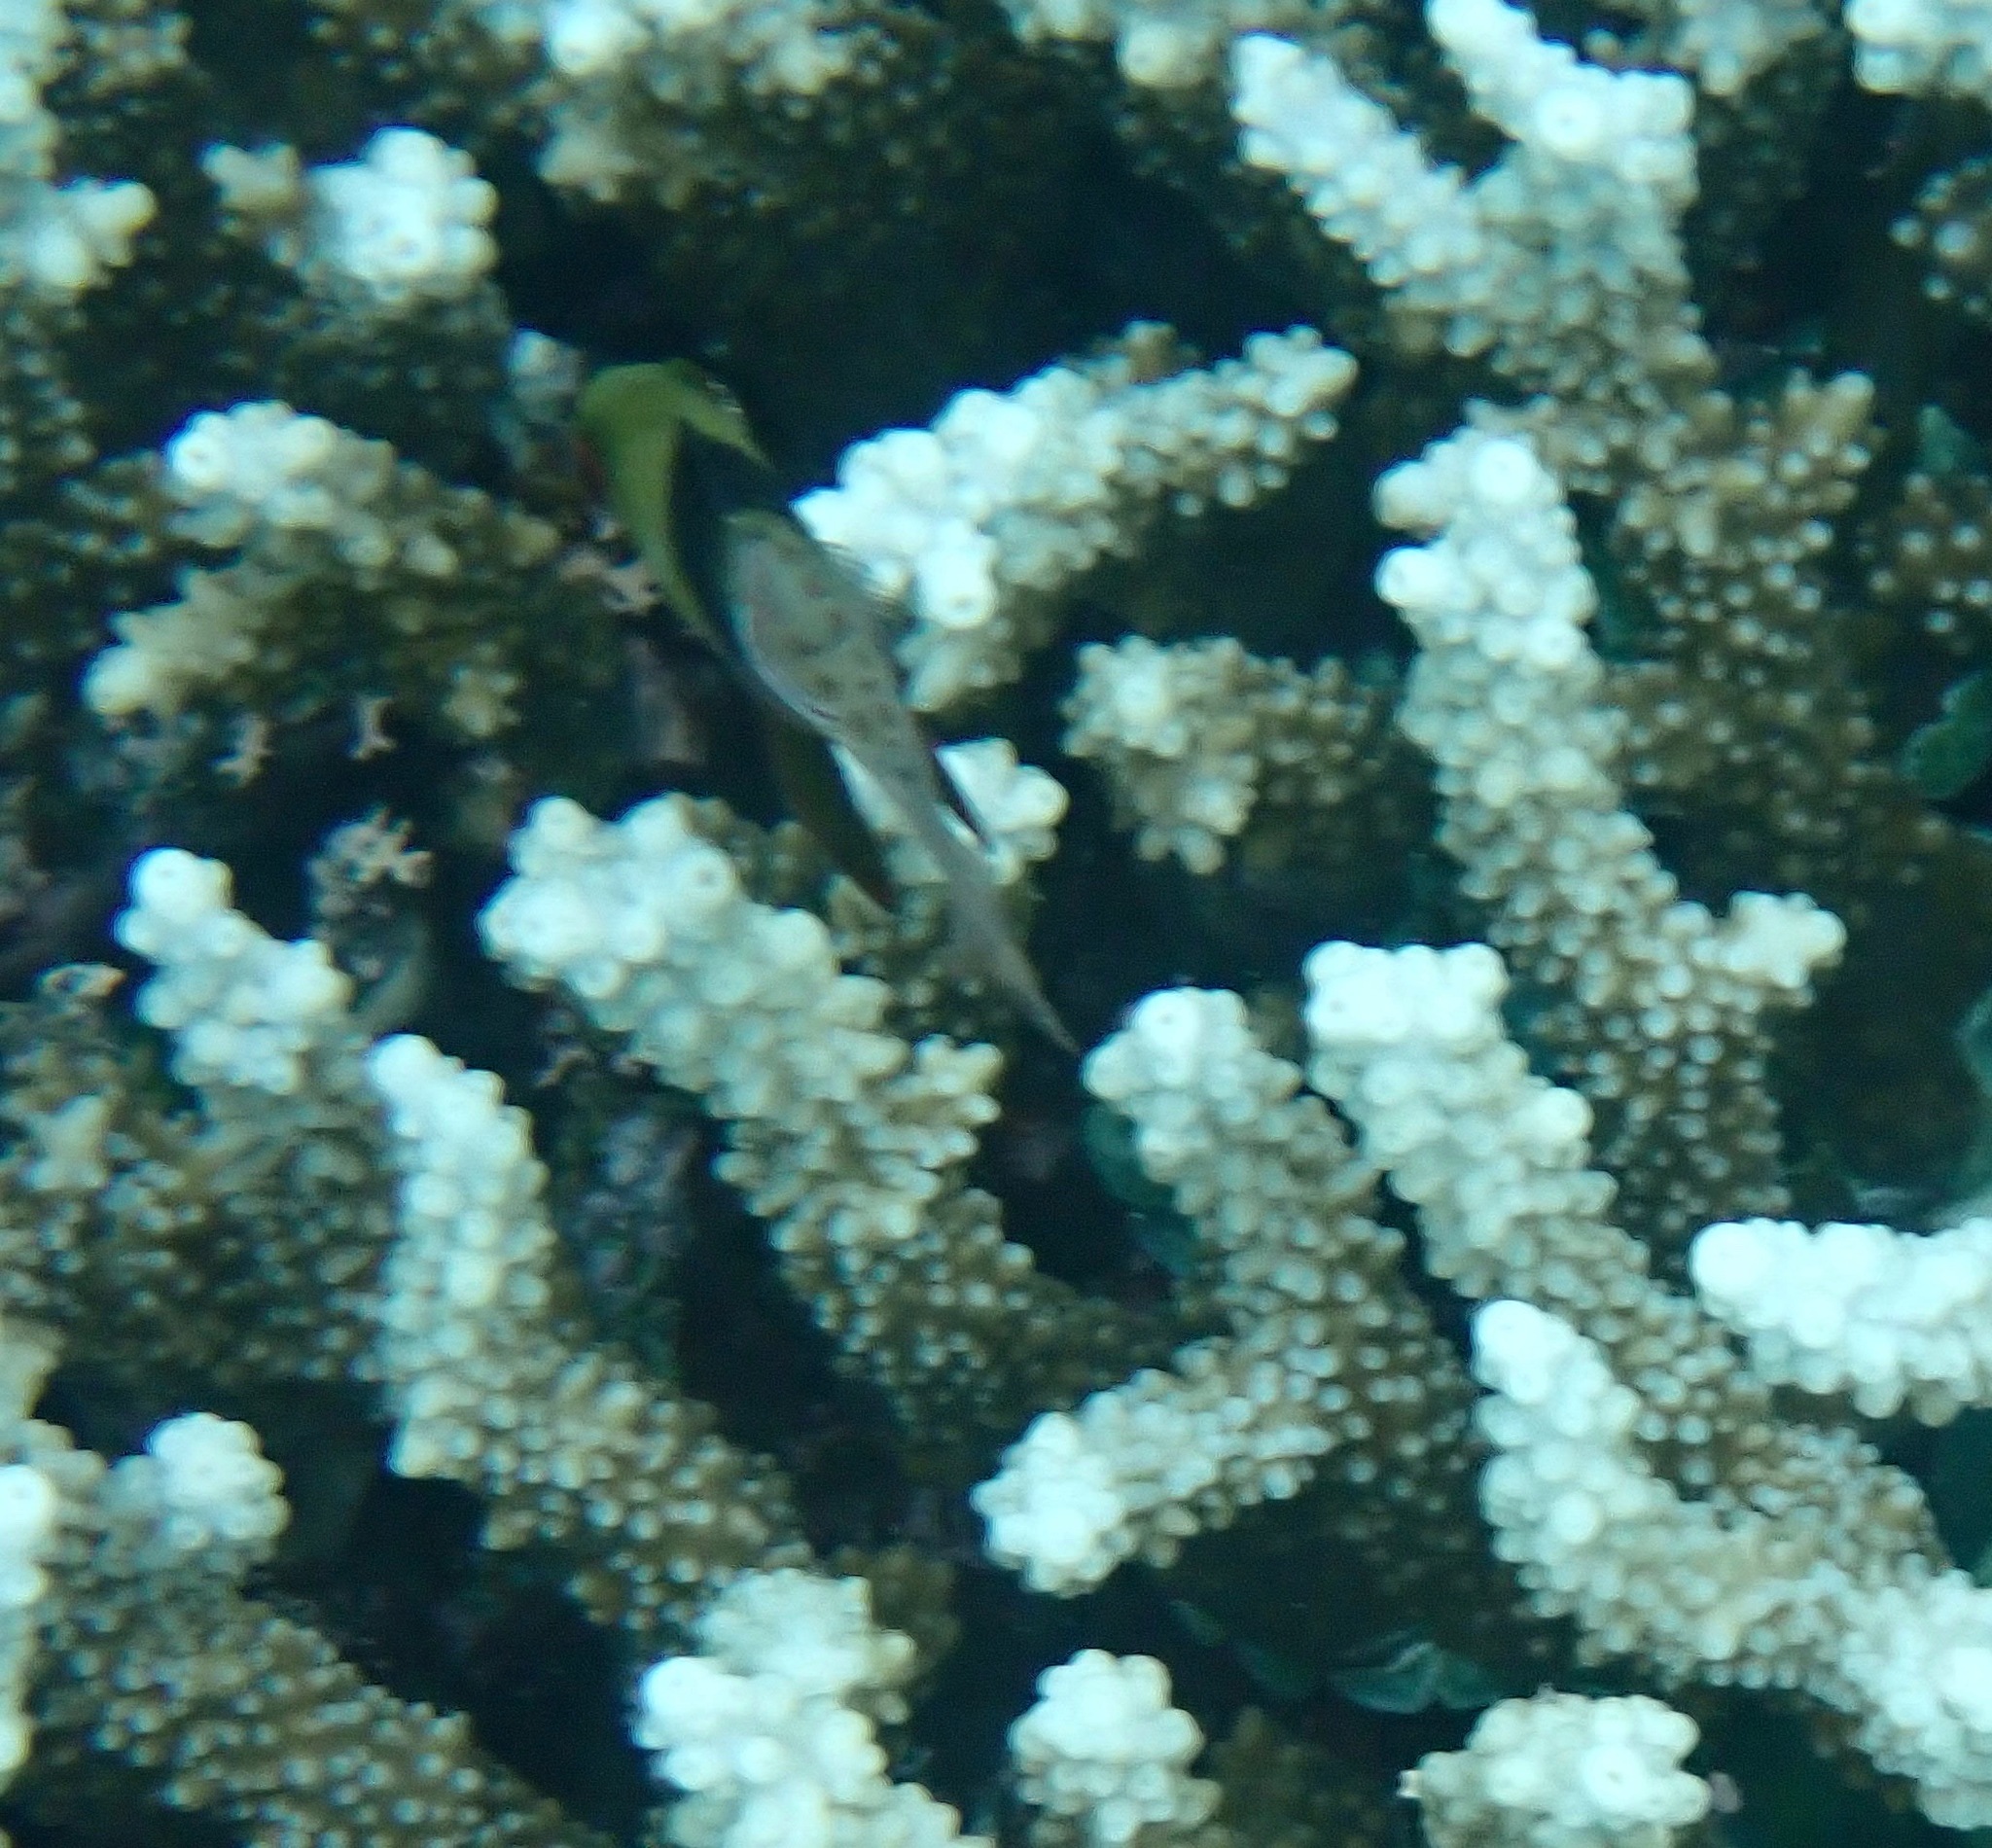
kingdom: Animalia
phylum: Chordata
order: Perciformes
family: Apogonidae
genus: Sphaeramia
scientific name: Sphaeramia nematoptera
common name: Pajama cardinalfish
